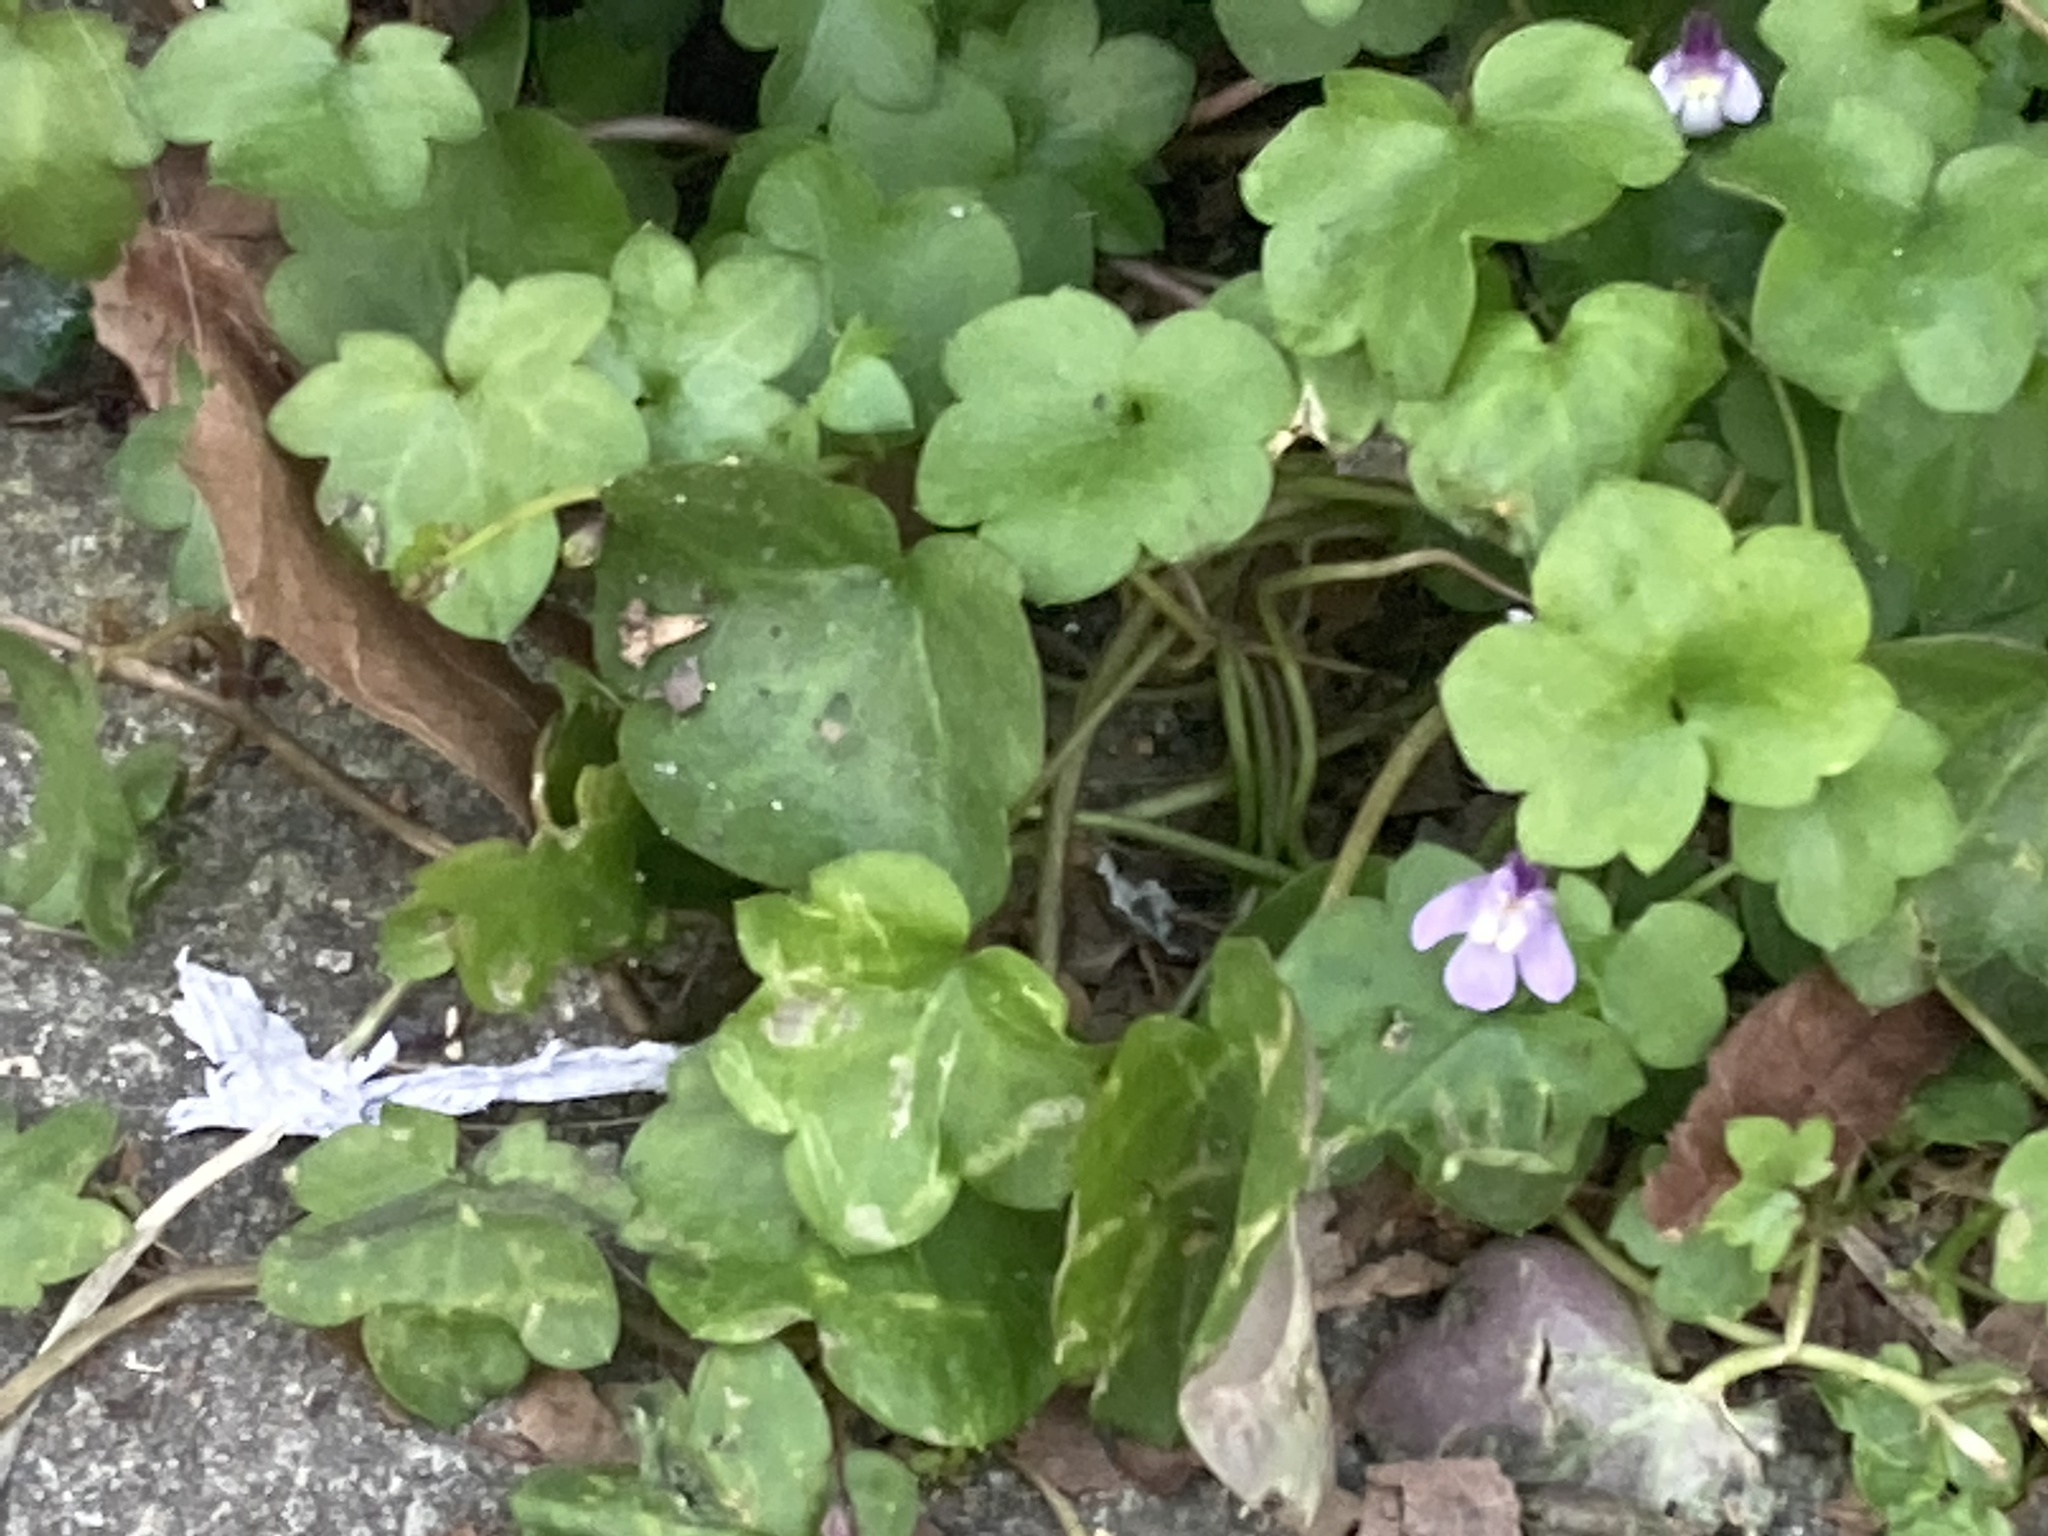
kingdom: Plantae
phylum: Tracheophyta
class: Magnoliopsida
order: Lamiales
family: Plantaginaceae
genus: Cymbalaria
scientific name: Cymbalaria muralis
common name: Ivy-leaved toadflax
